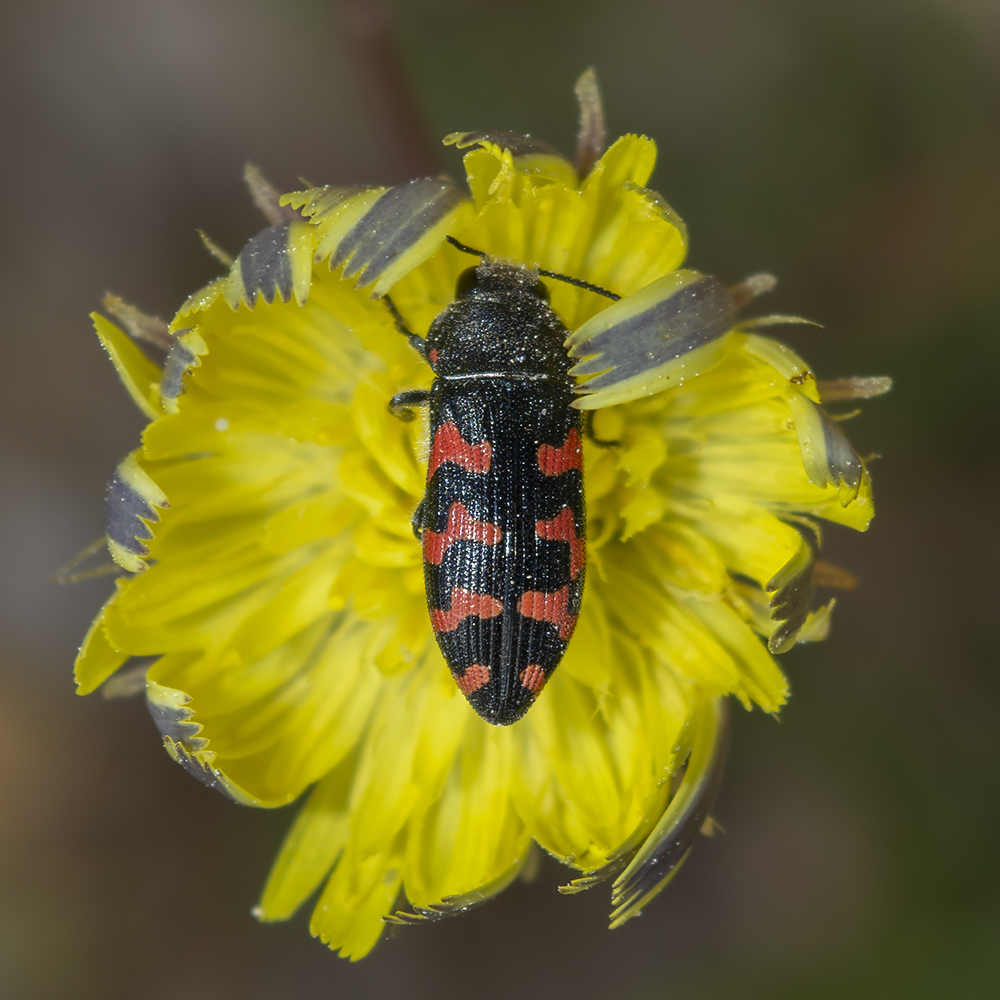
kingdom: Animalia
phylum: Arthropoda
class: Insecta
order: Coleoptera
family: Buprestidae
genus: Acmaeodera
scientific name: Acmaeodera quadrizonata
